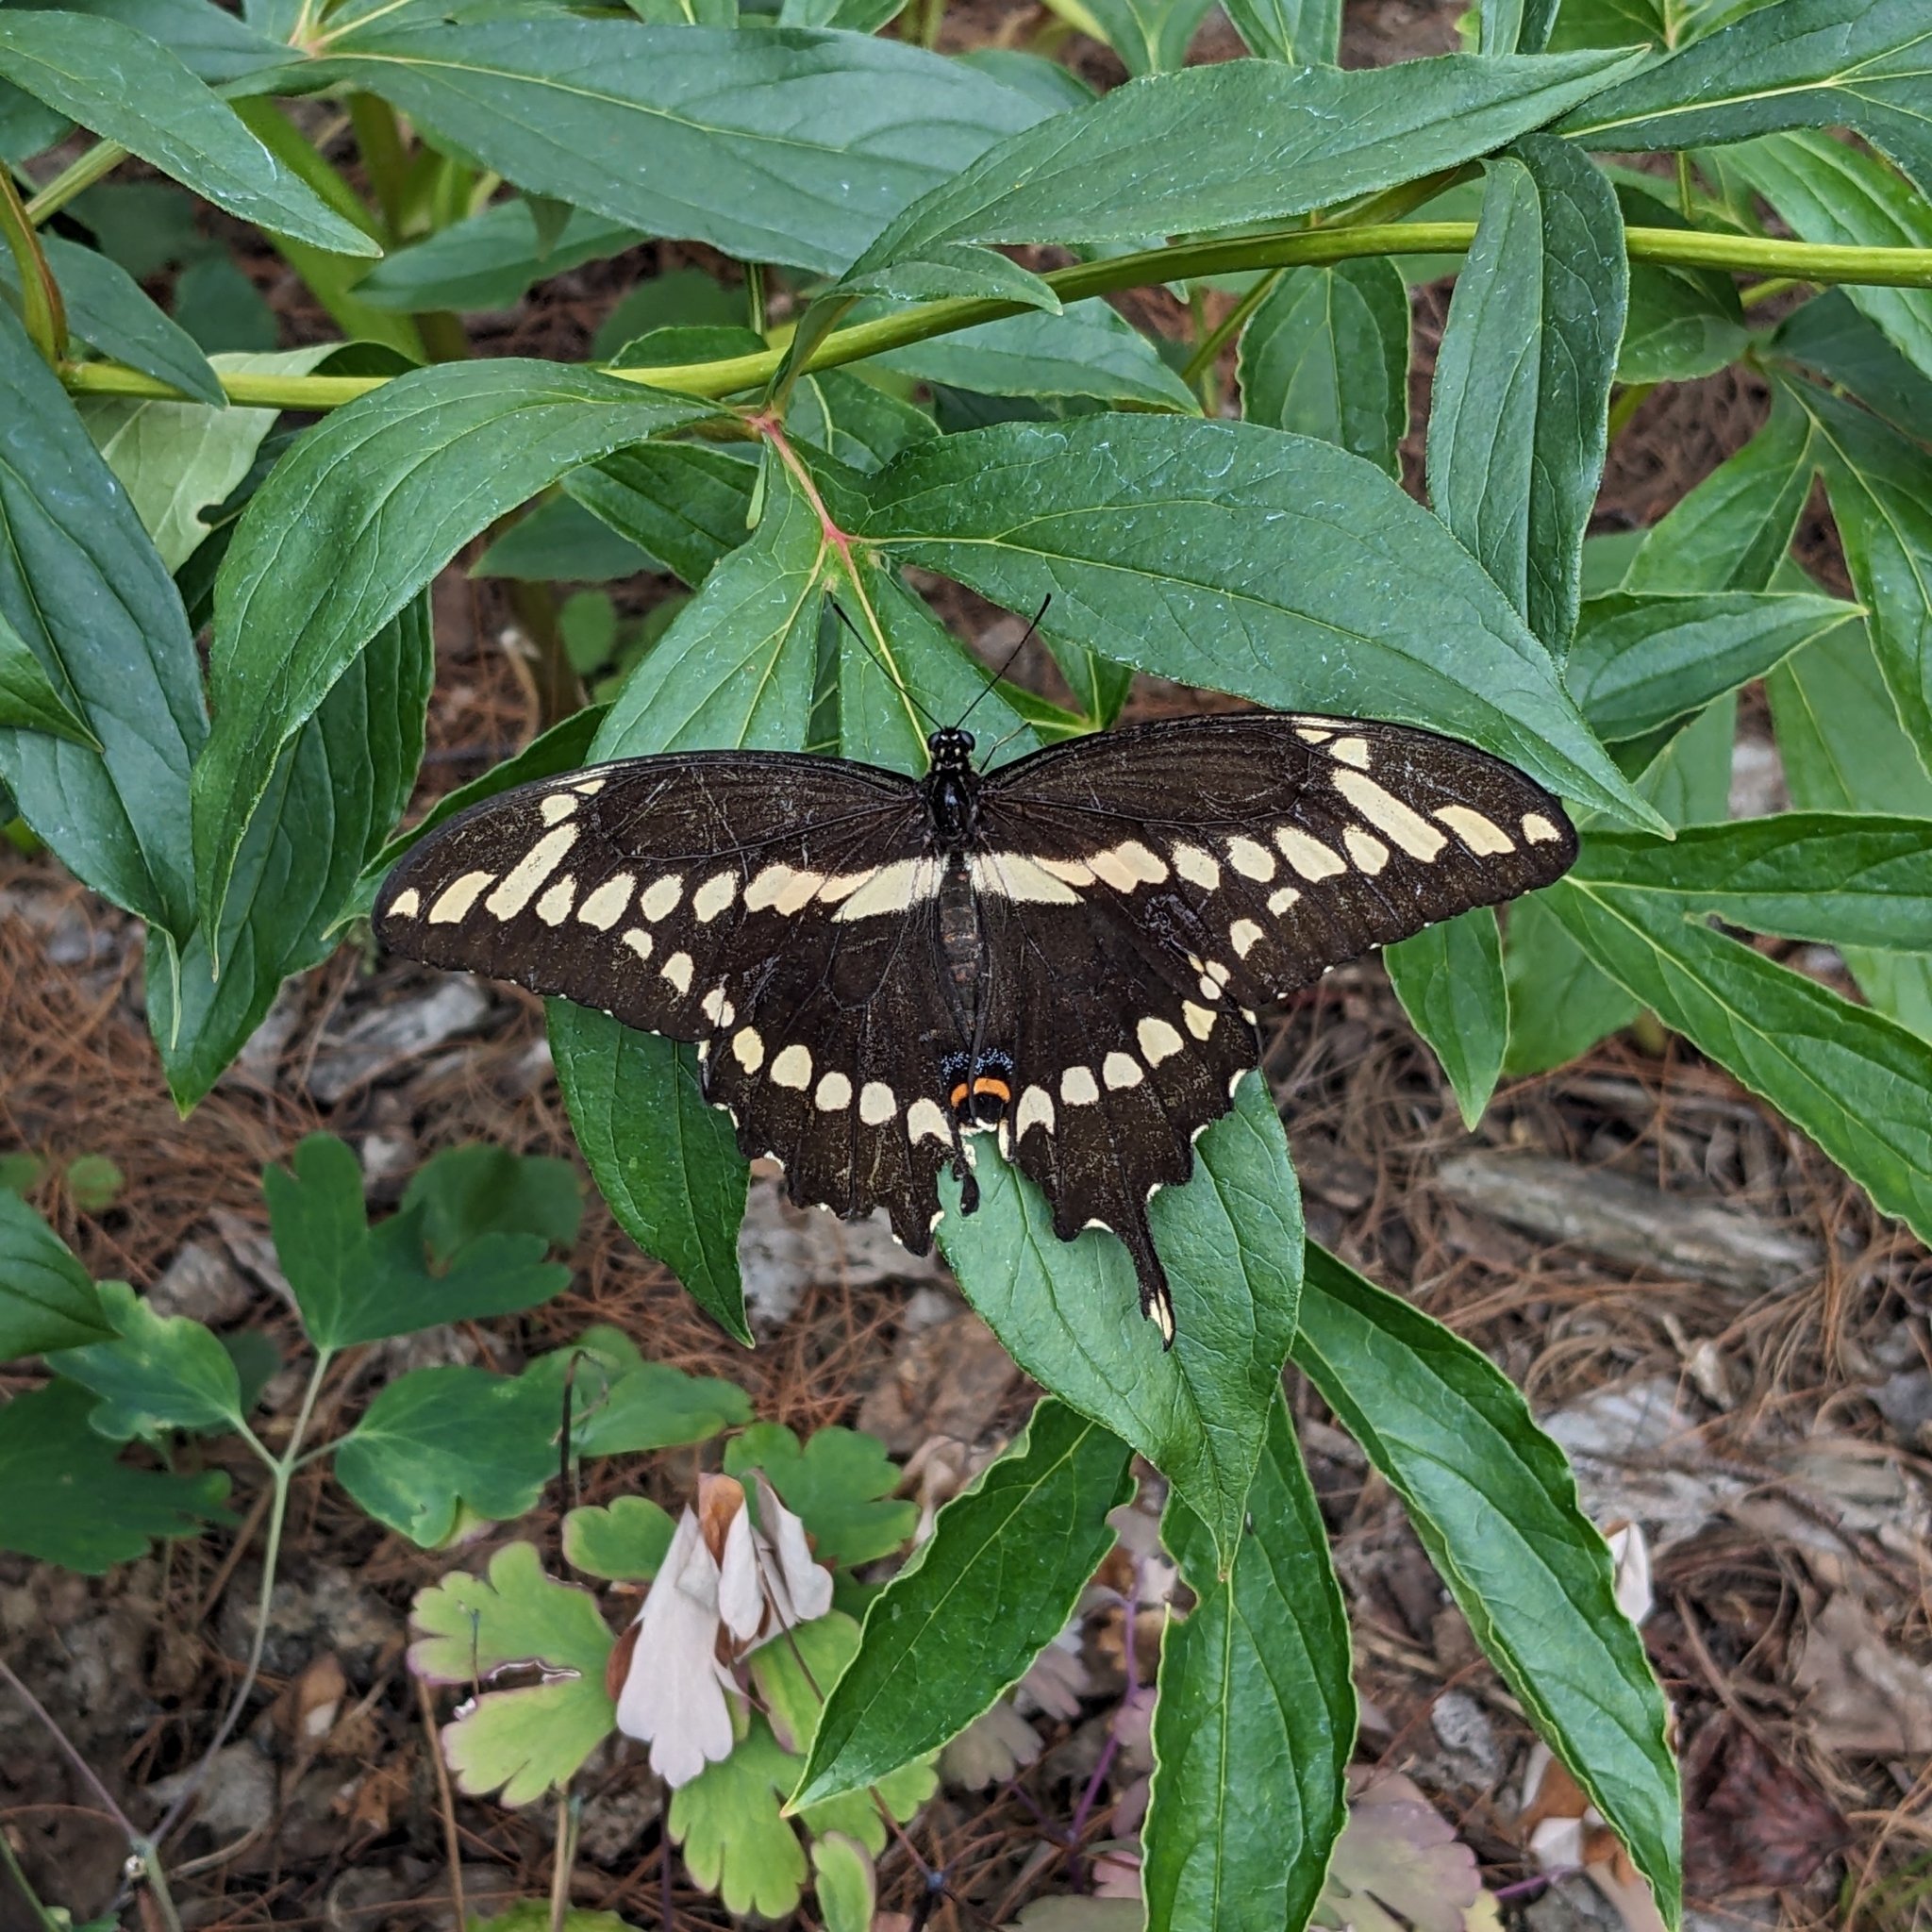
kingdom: Animalia
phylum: Arthropoda
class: Insecta
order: Lepidoptera
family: Papilionidae
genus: Papilio
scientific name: Papilio cresphontes
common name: Giant swallowtail
